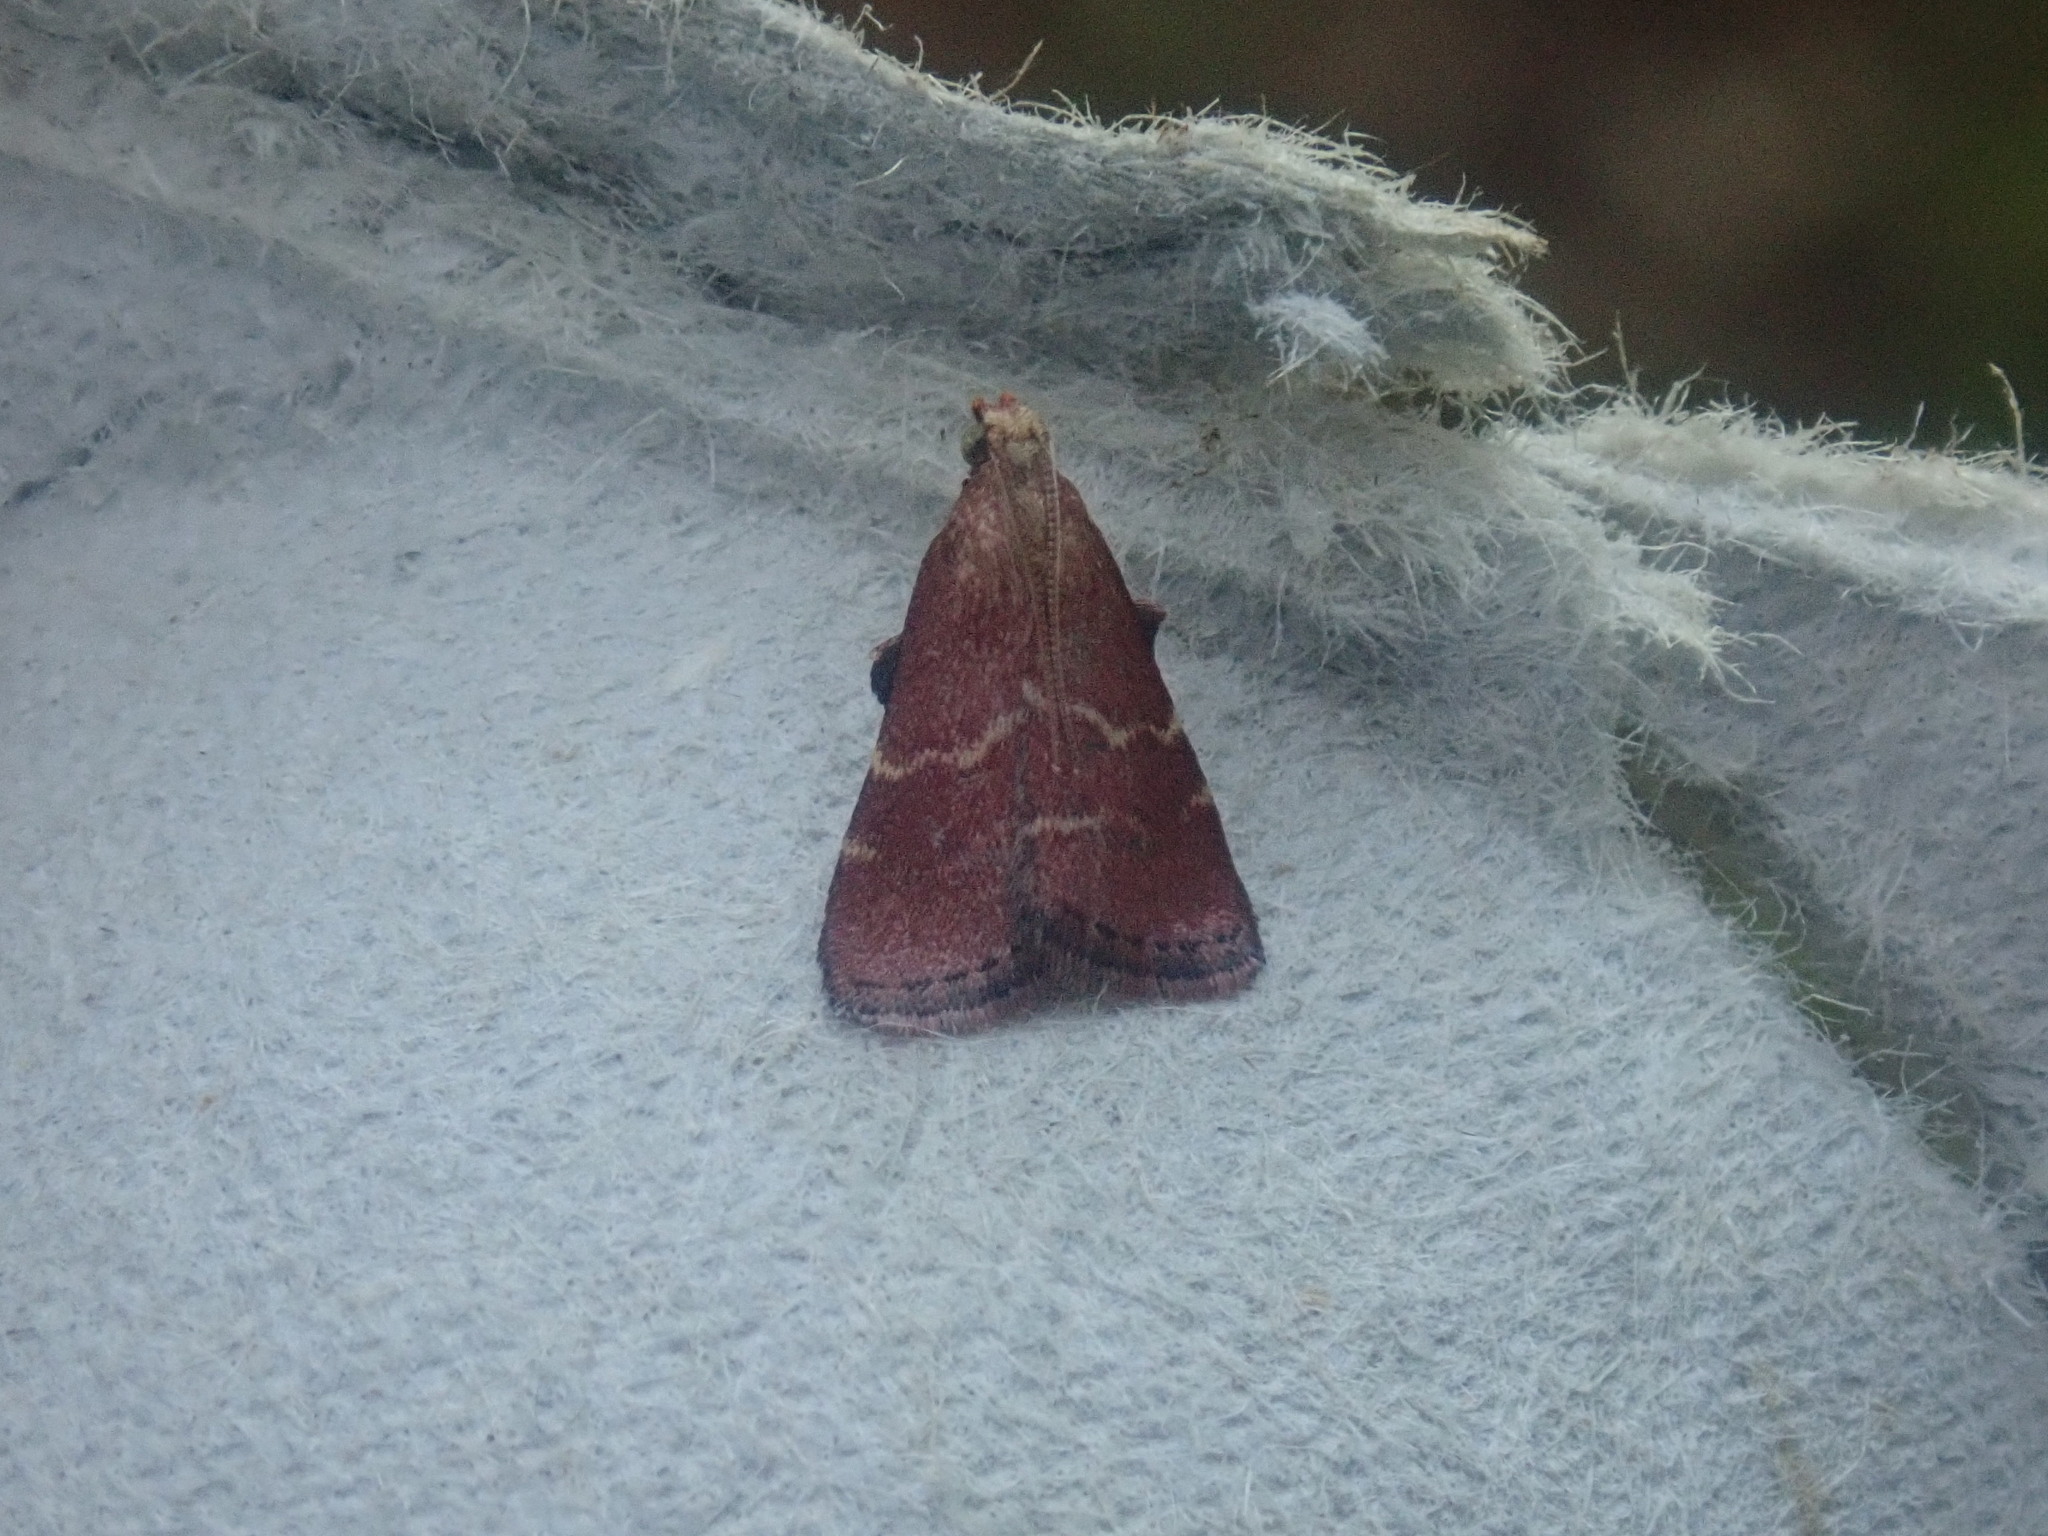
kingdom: Animalia
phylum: Arthropoda
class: Insecta
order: Lepidoptera
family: Pyralidae
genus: Arta
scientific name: Arta statalis
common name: Posturing arta moth
